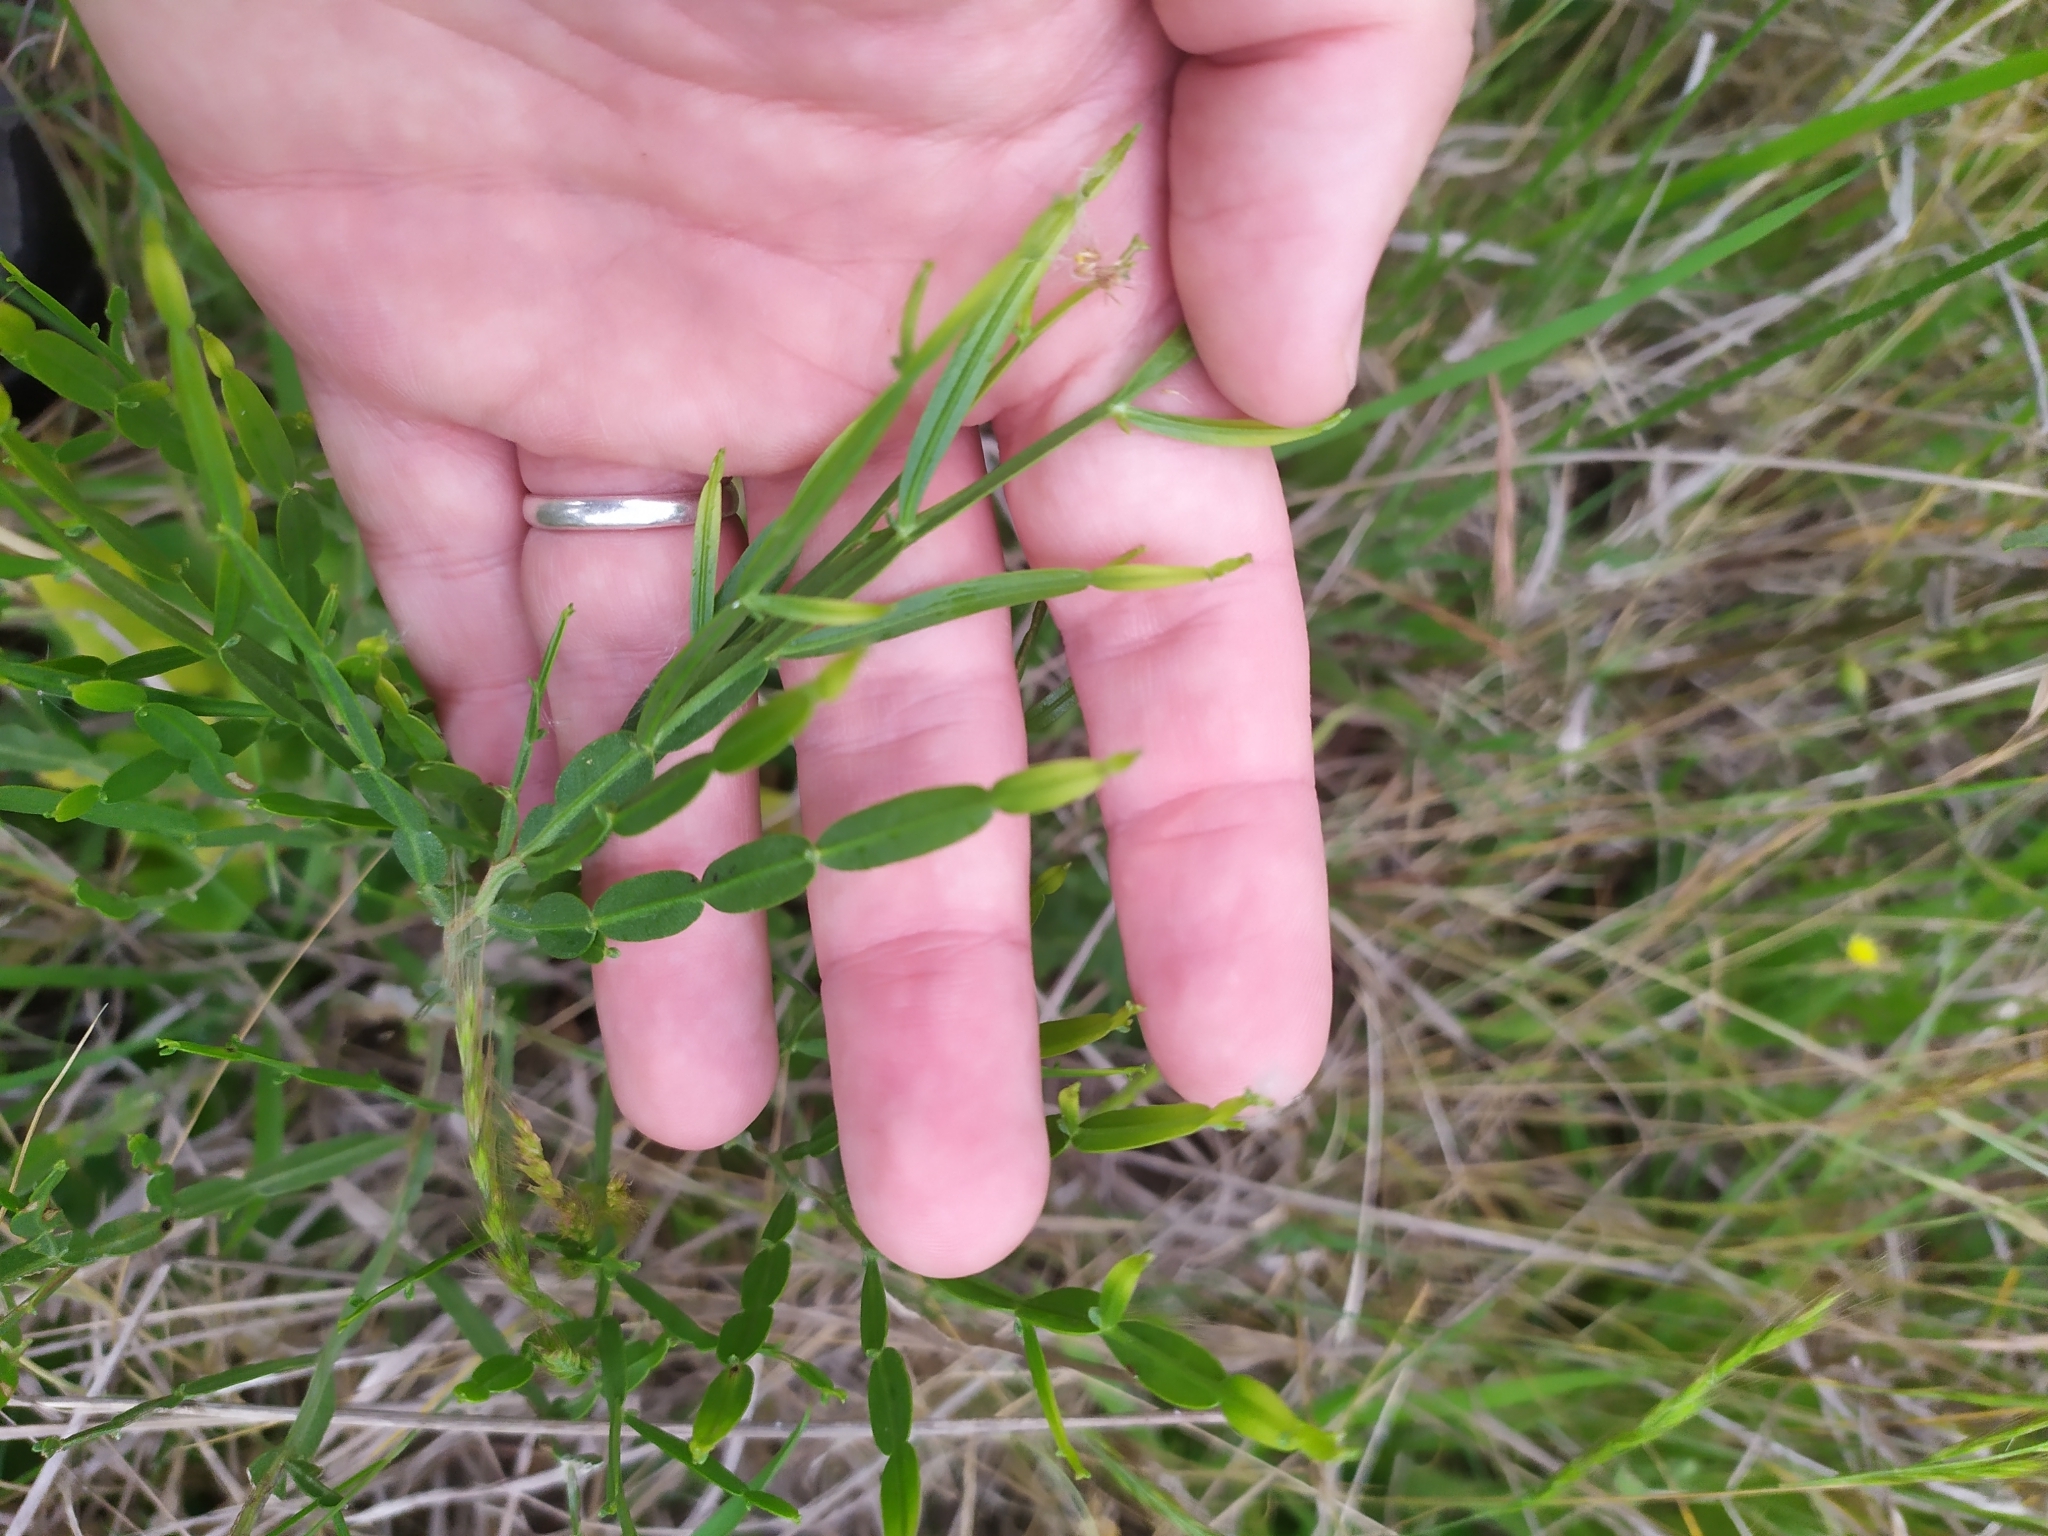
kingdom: Plantae
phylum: Tracheophyta
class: Magnoliopsida
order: Asterales
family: Asteraceae
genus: Baccharis
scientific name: Baccharis articulata
